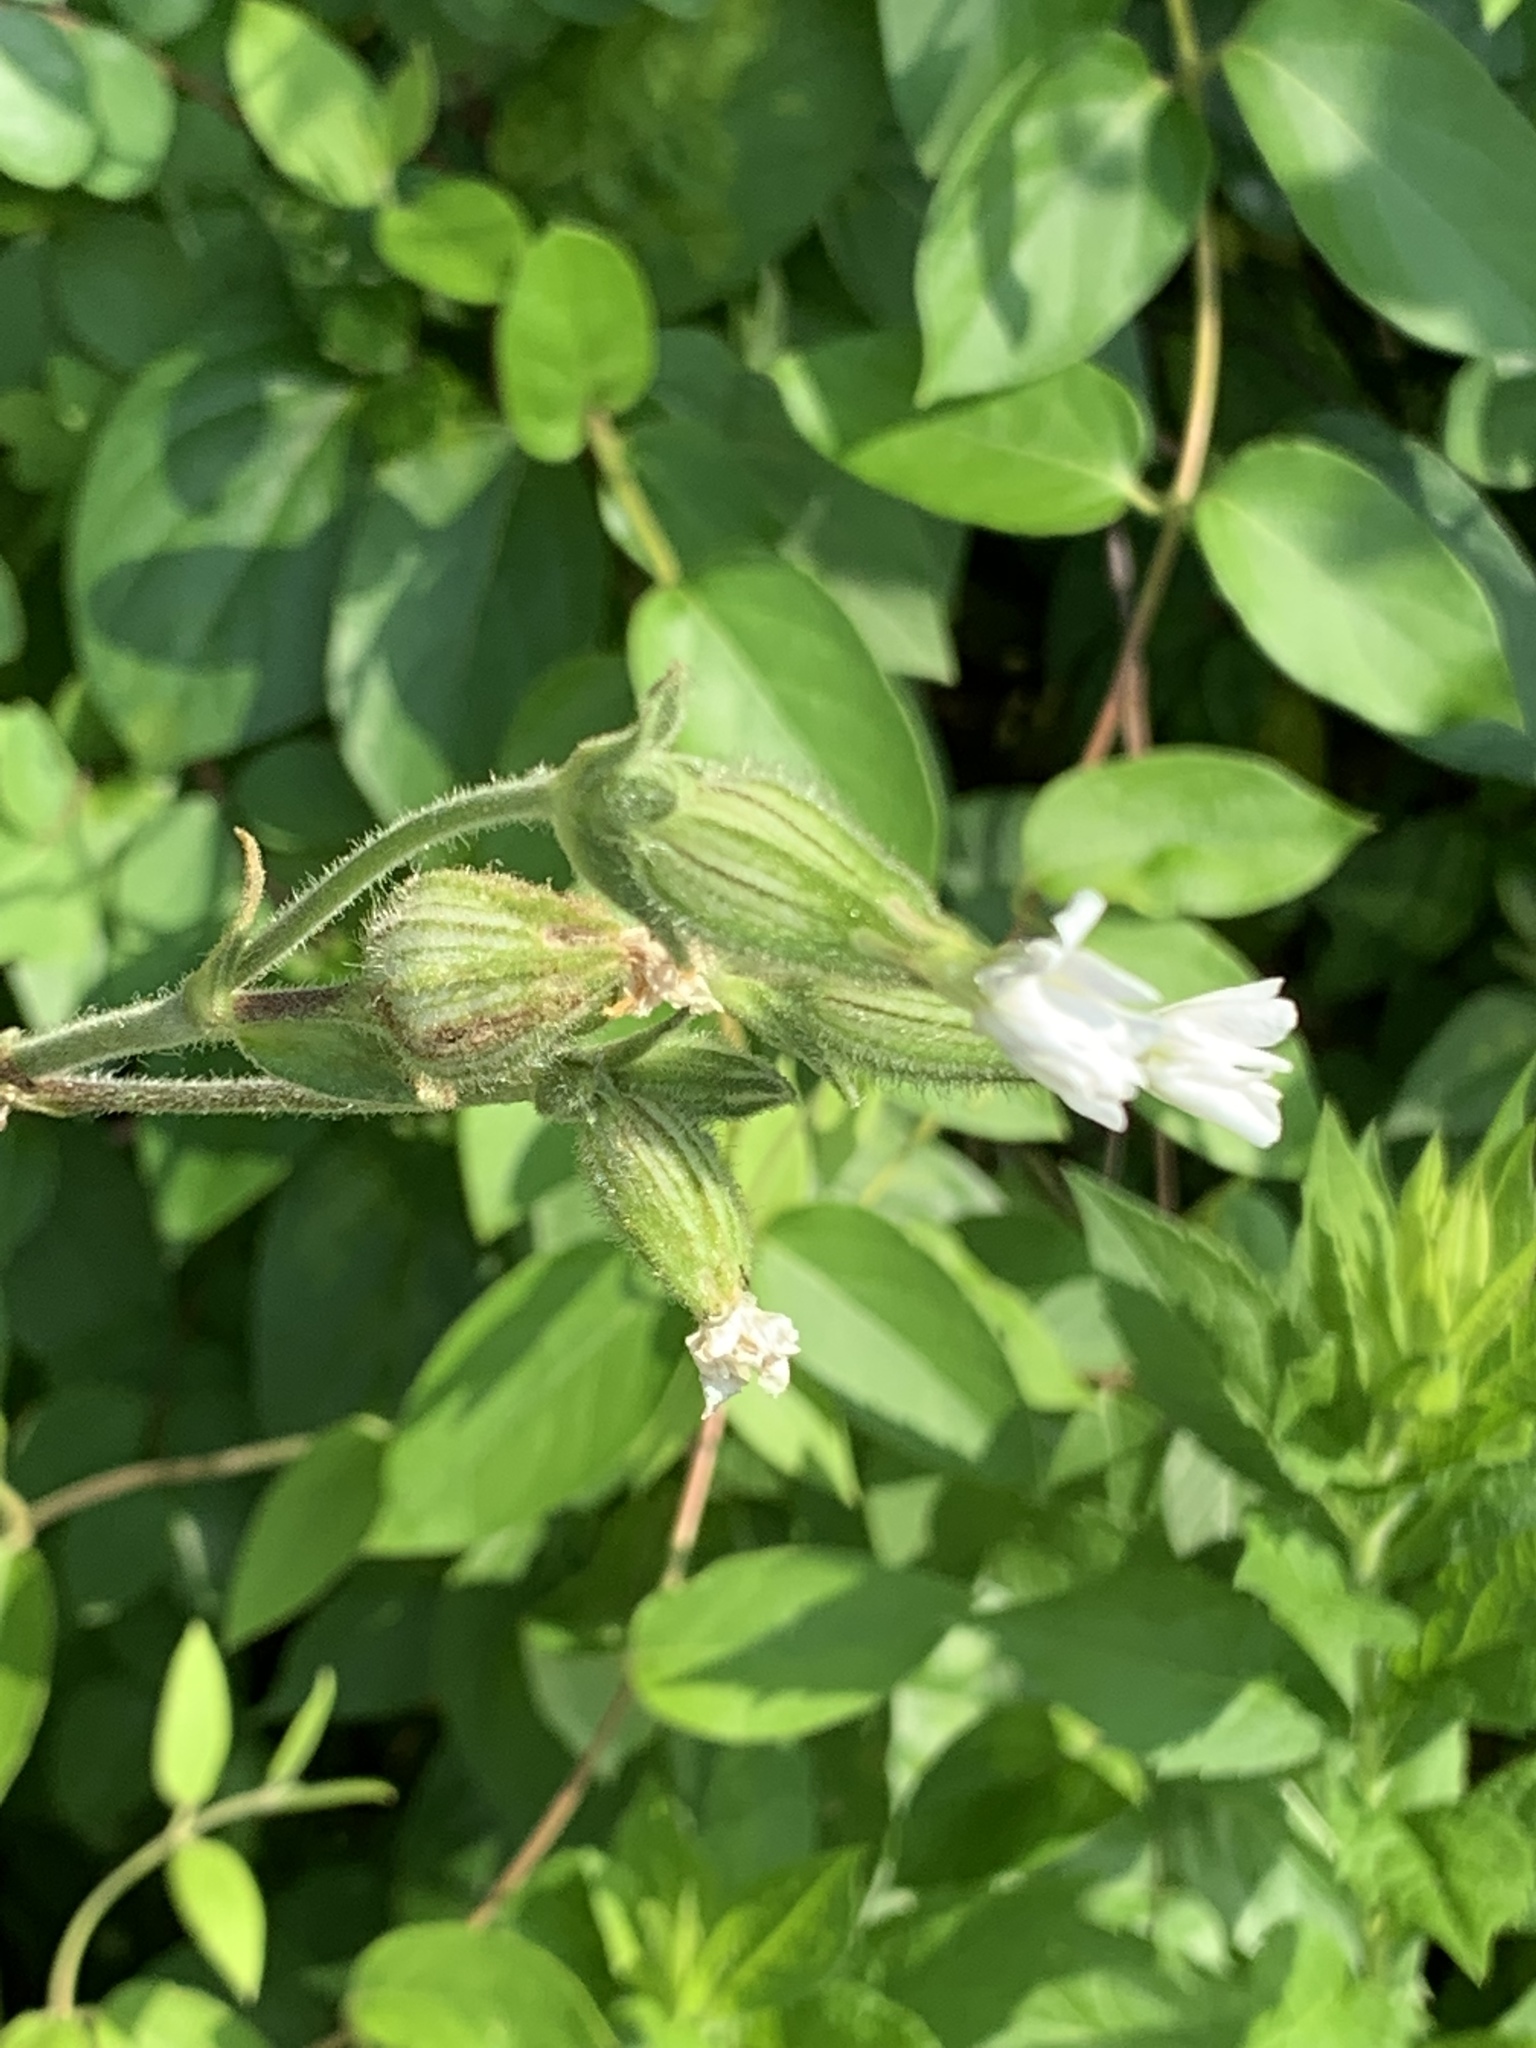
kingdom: Plantae
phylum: Tracheophyta
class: Magnoliopsida
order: Caryophyllales
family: Caryophyllaceae
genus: Silene
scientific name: Silene latifolia
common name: White campion
